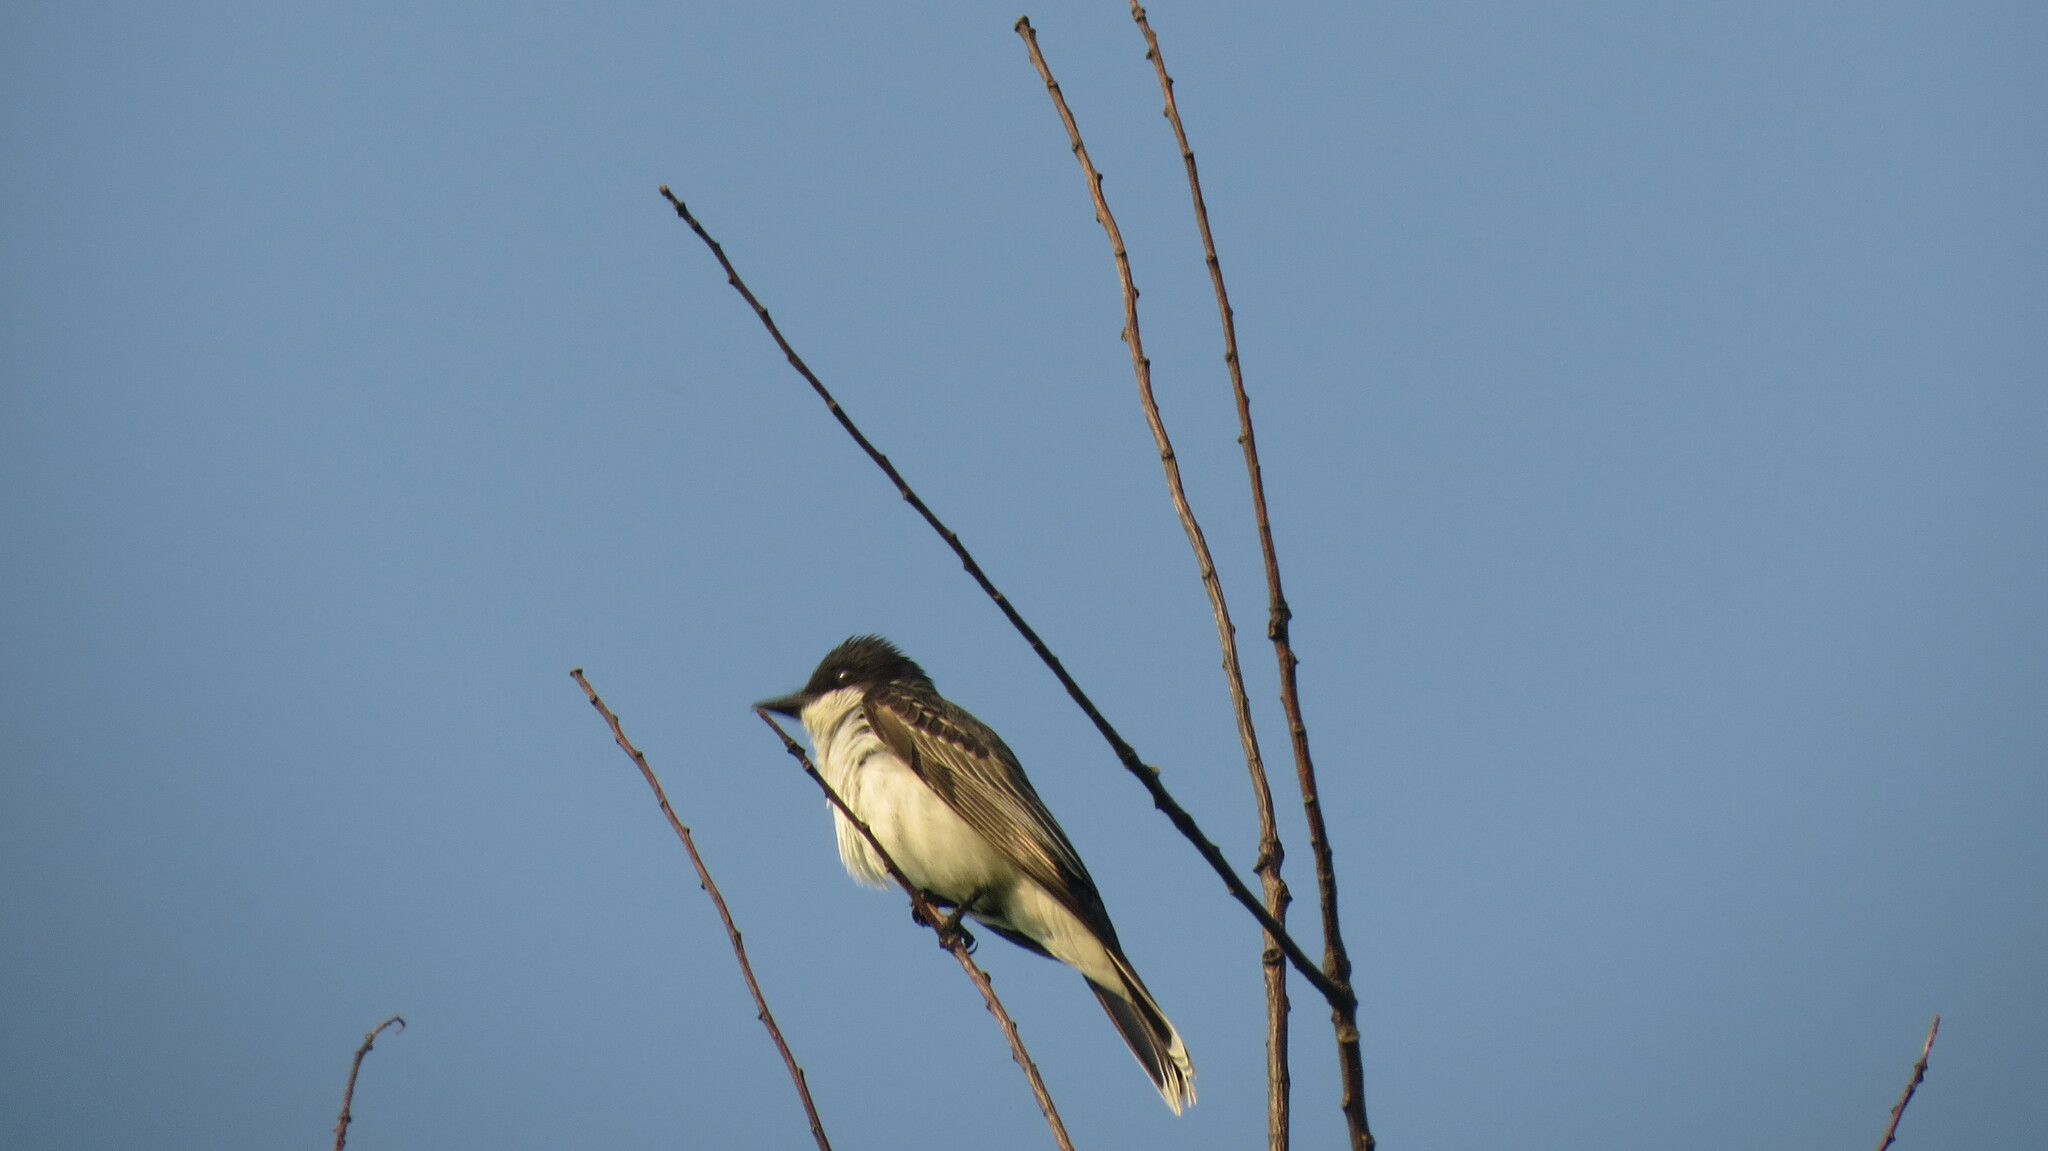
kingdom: Animalia
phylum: Chordata
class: Aves
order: Passeriformes
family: Tyrannidae
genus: Tyrannus
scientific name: Tyrannus tyrannus
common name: Eastern kingbird
